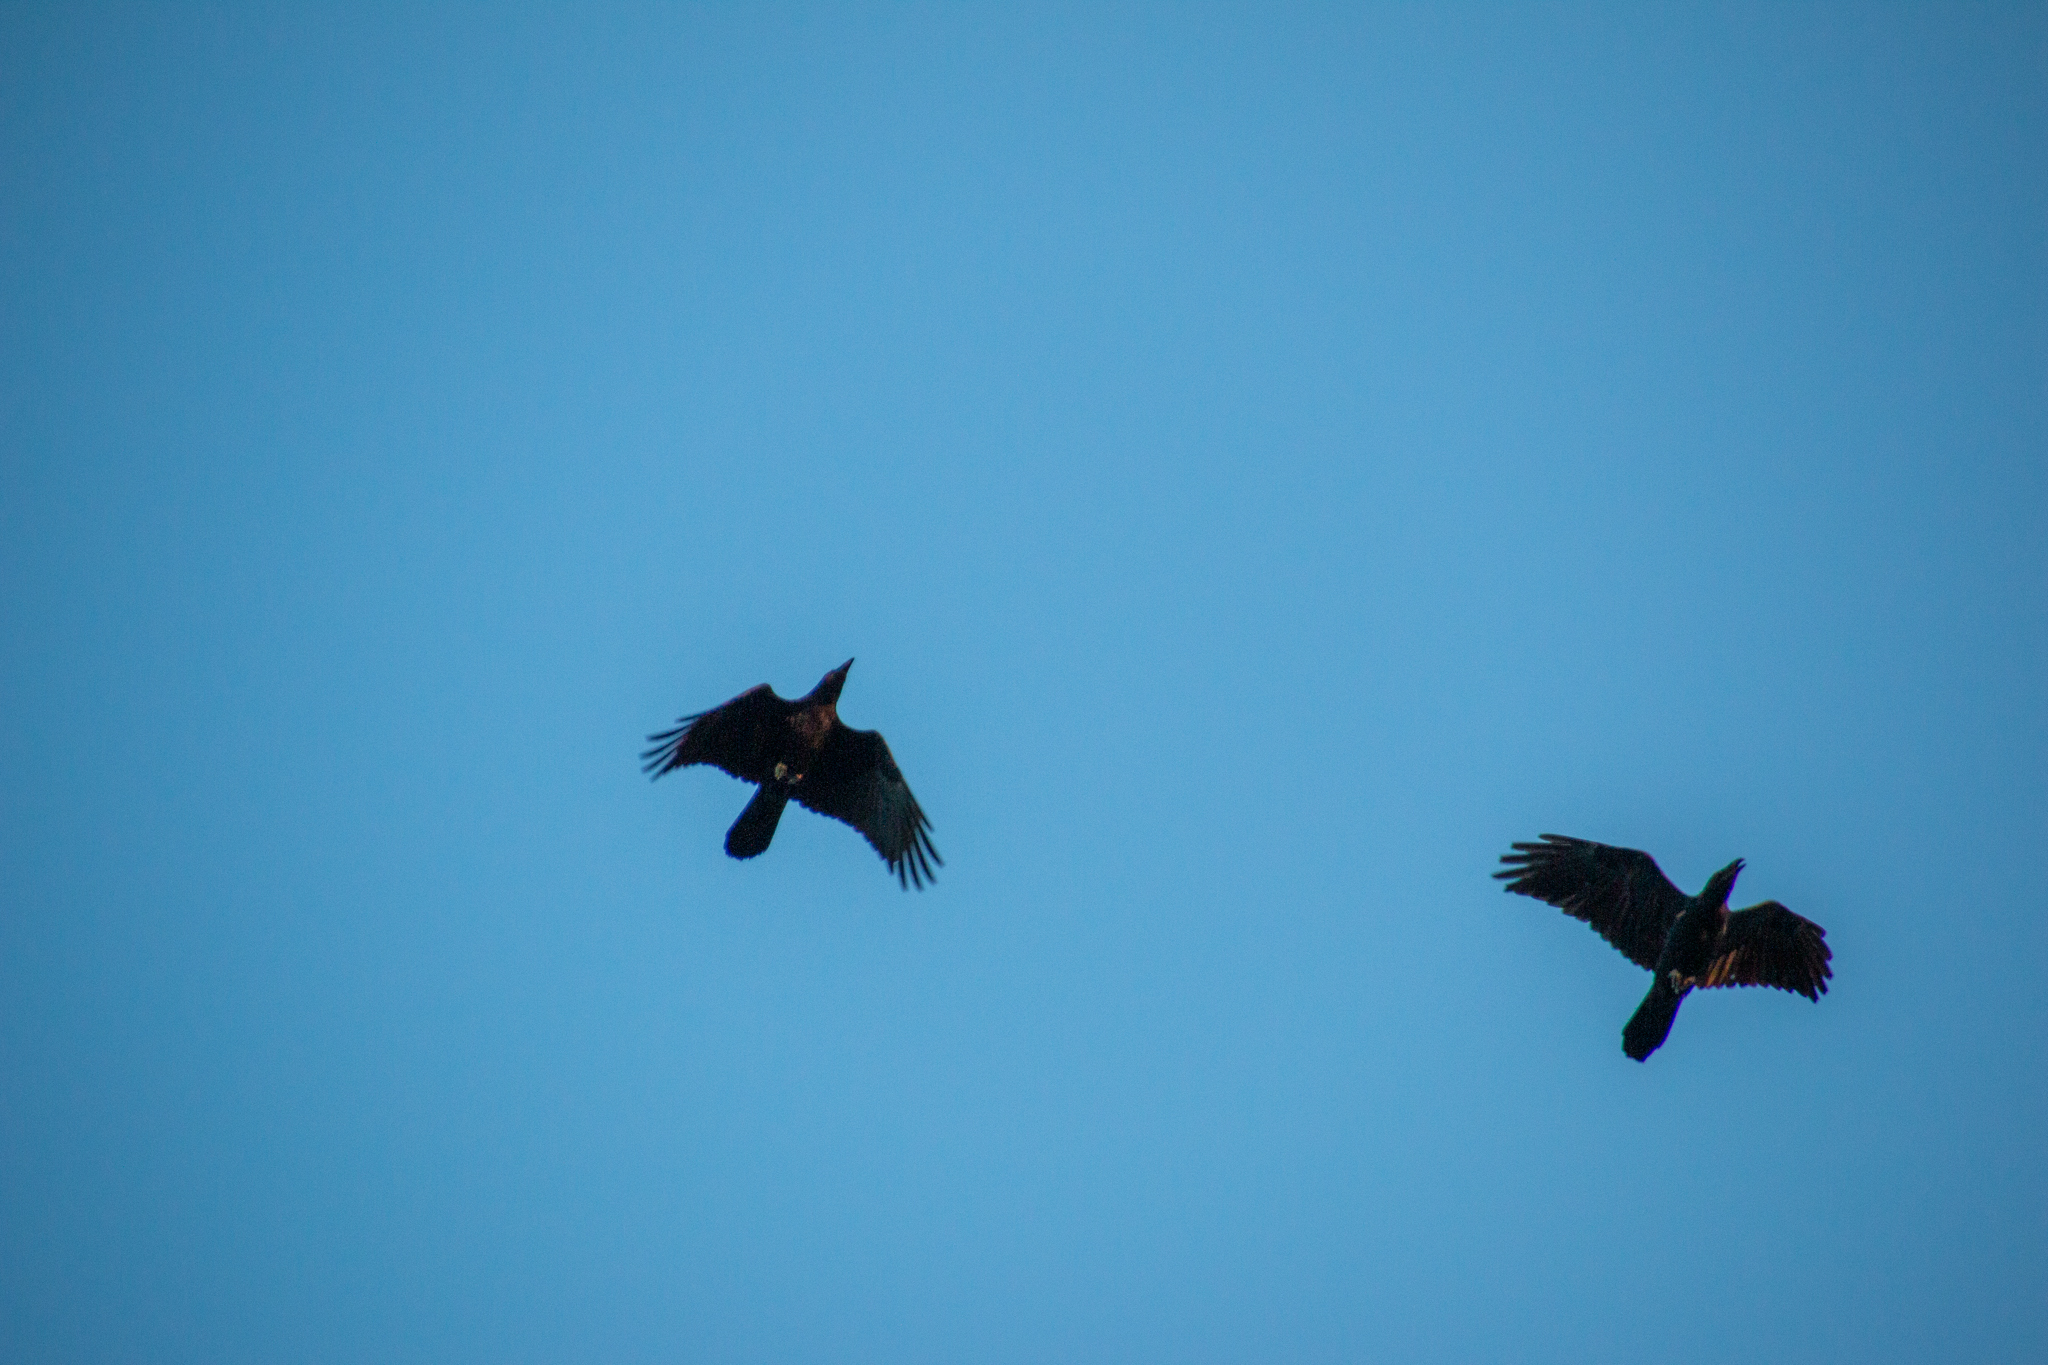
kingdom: Animalia
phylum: Chordata
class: Aves
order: Passeriformes
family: Corvidae
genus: Corvus
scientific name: Corvus brachyrhynchos
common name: American crow
